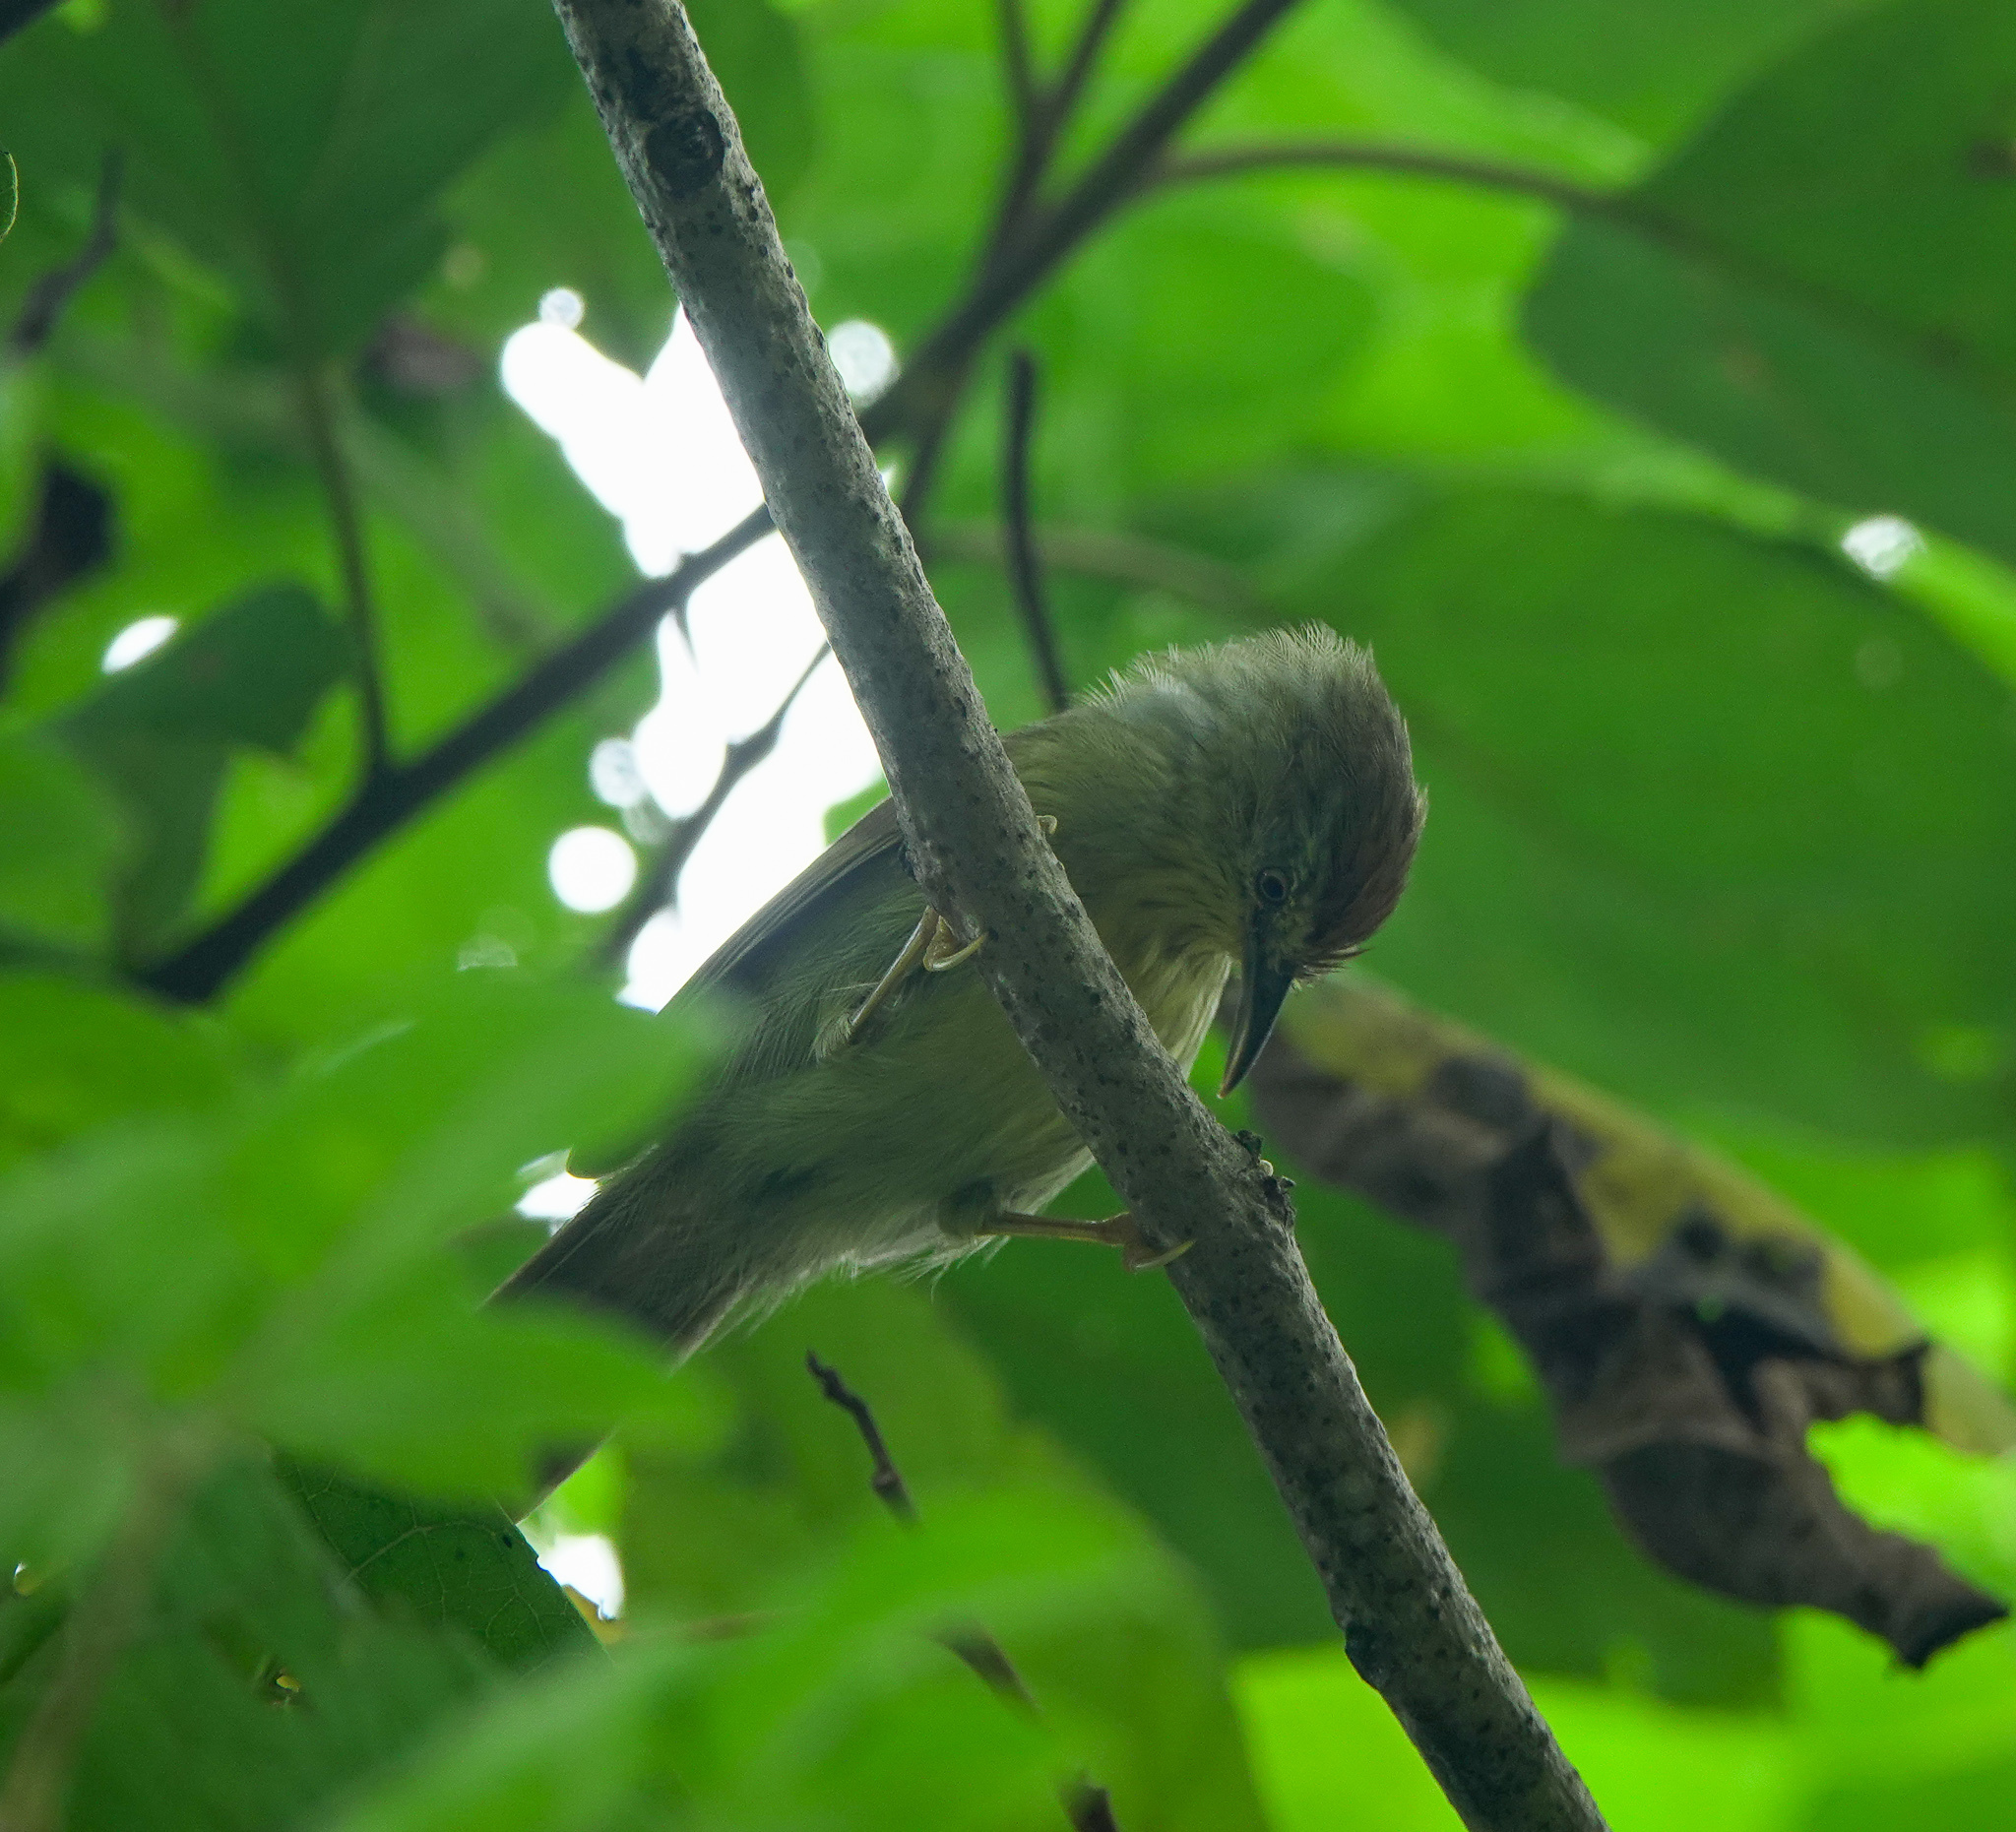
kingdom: Animalia
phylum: Chordata
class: Aves
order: Passeriformes
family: Timaliidae
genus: Macronus
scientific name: Macronus gularis
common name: Striped tit-babbler
